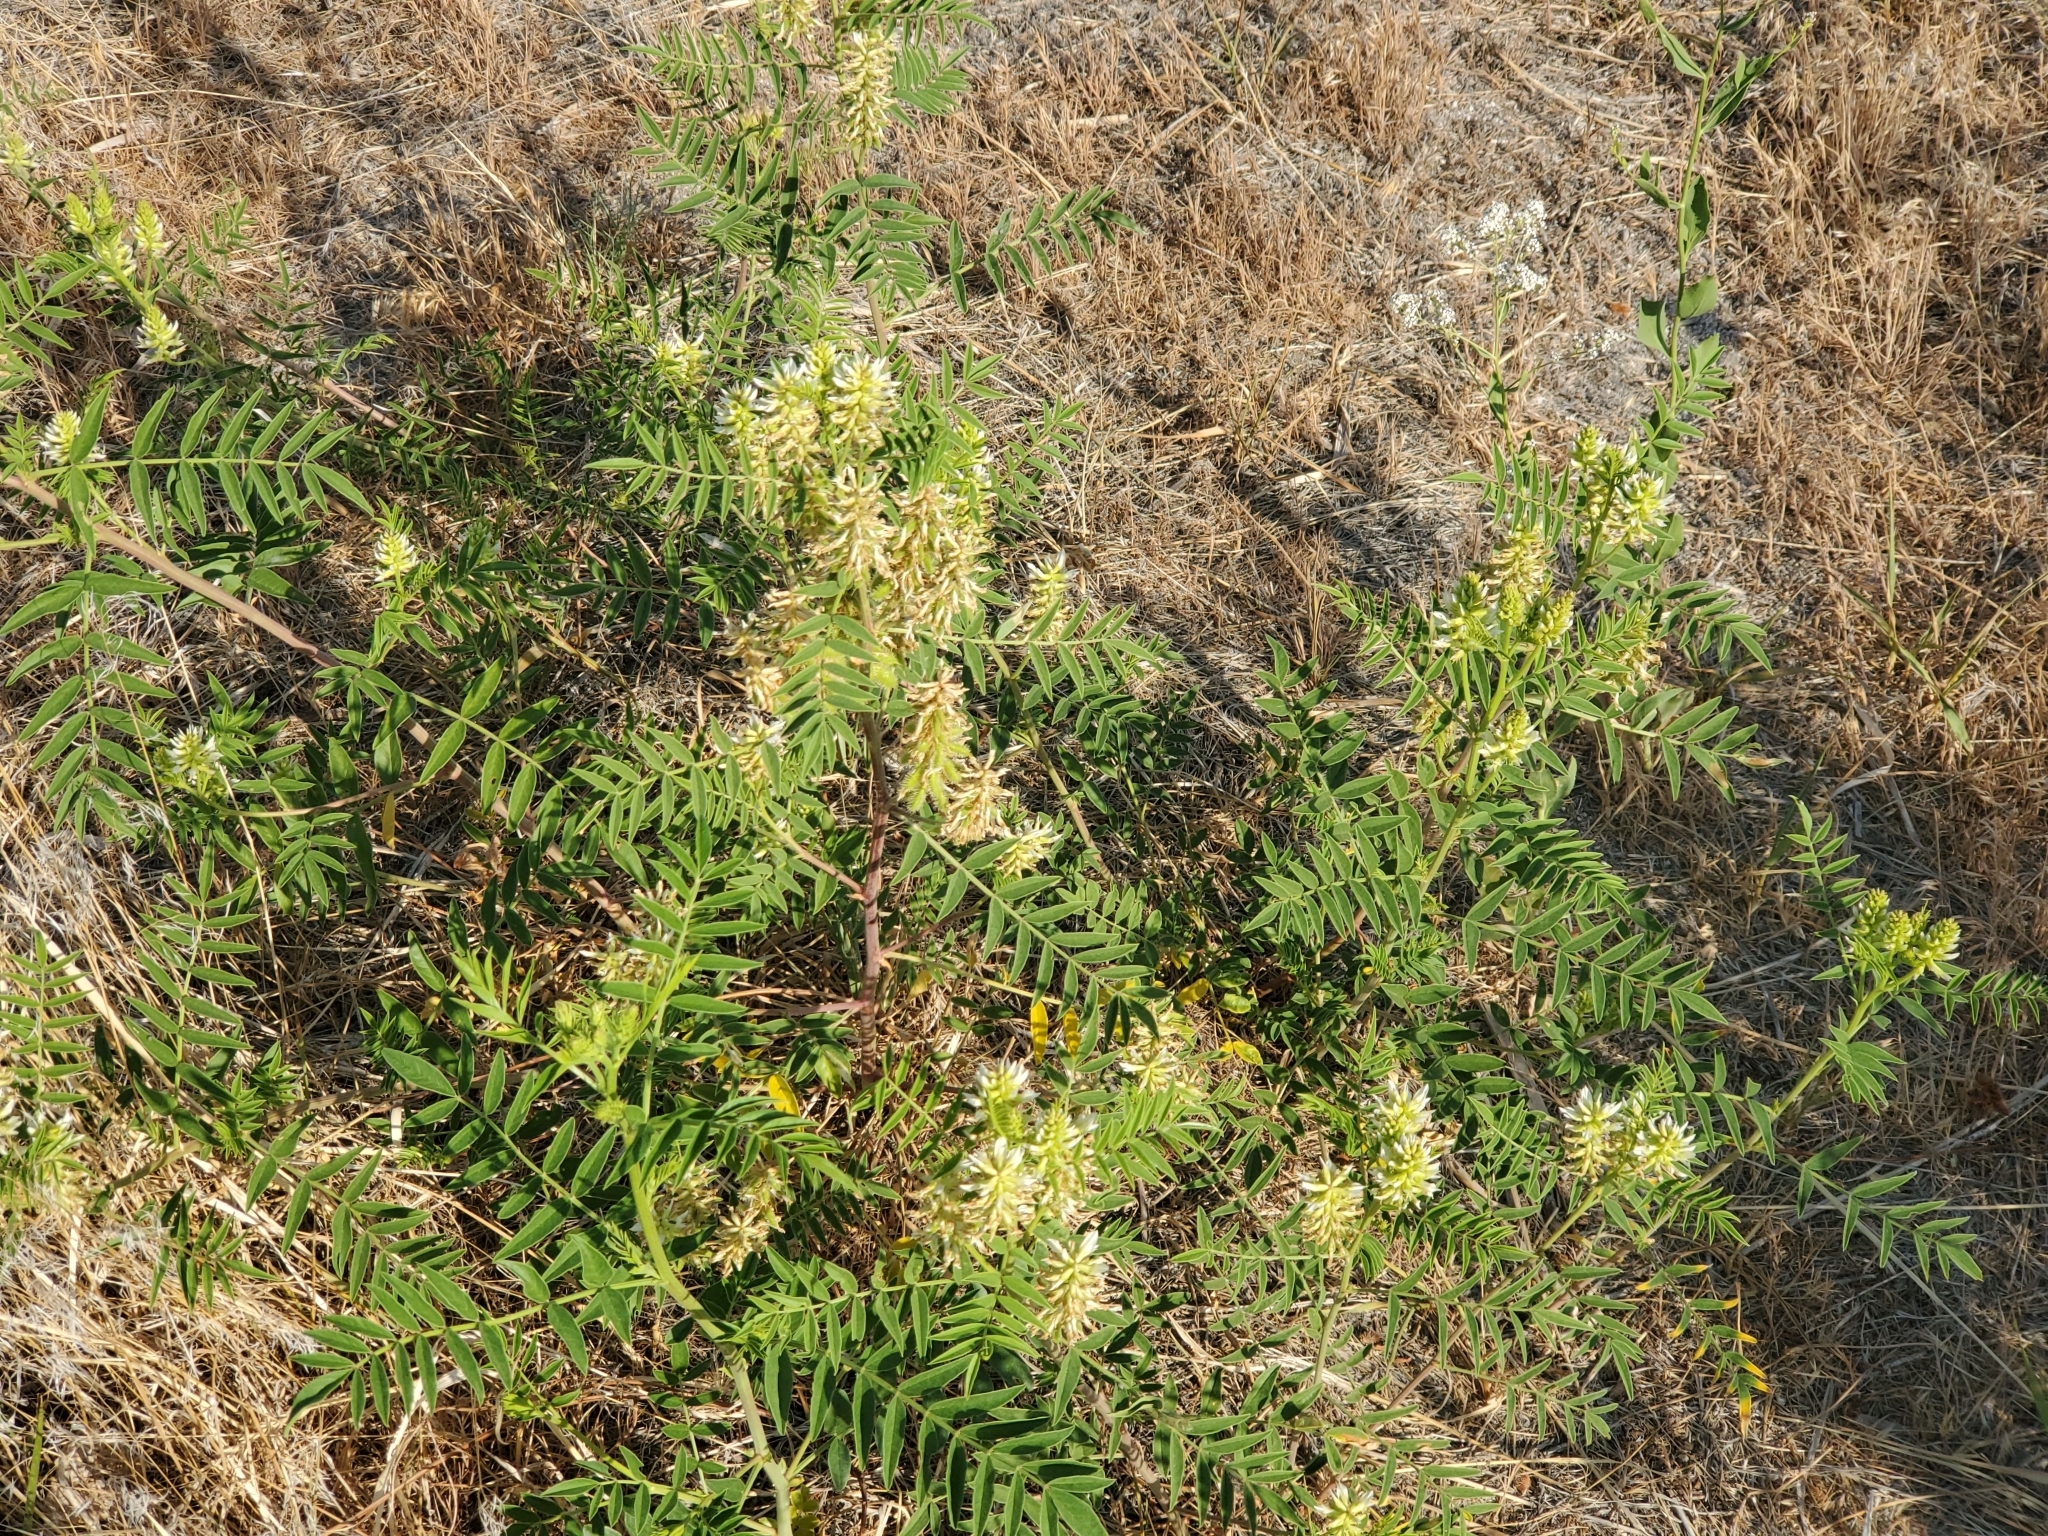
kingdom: Plantae
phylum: Tracheophyta
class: Magnoliopsida
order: Fabales
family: Fabaceae
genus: Glycyrrhiza
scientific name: Glycyrrhiza lepidota
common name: American liquorice
